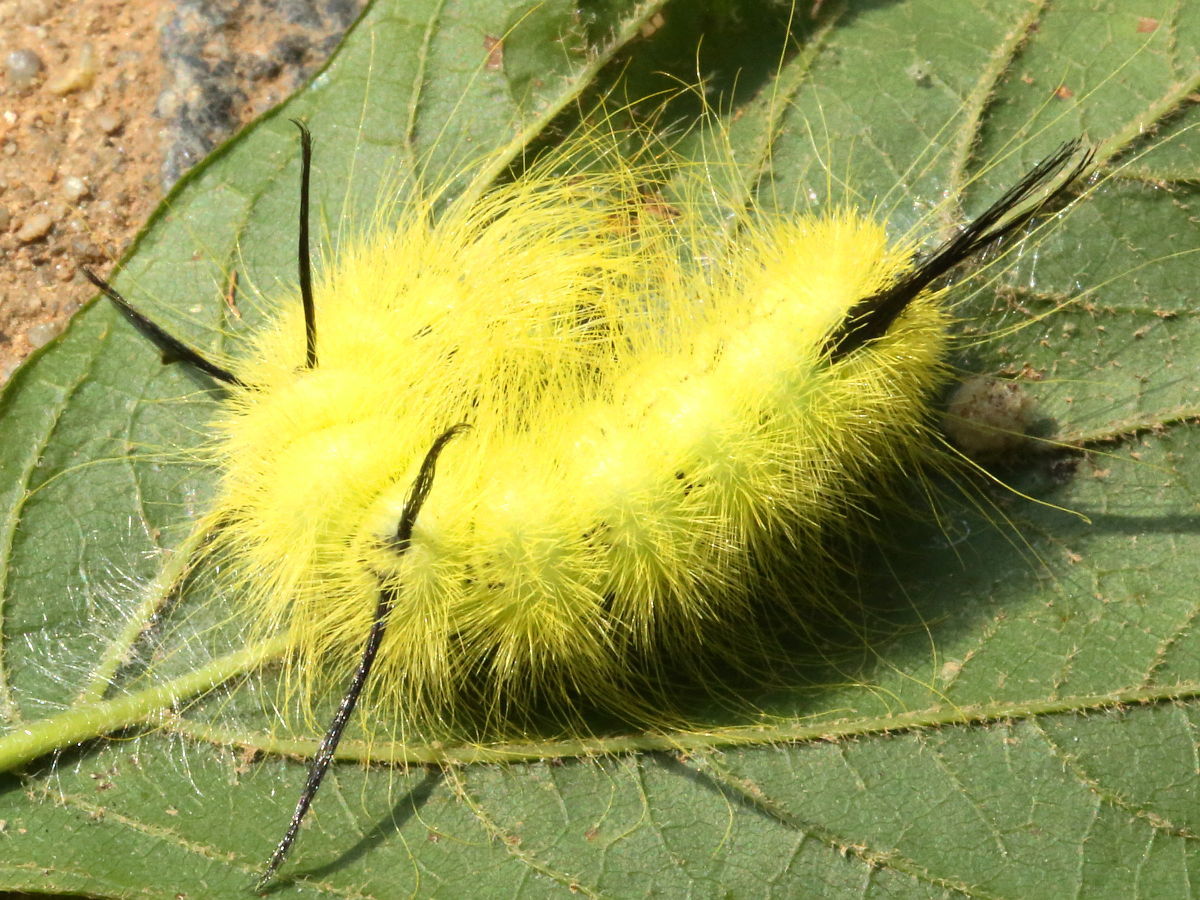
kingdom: Animalia
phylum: Arthropoda
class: Insecta
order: Lepidoptera
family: Noctuidae
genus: Acronicta
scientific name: Acronicta americana
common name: American dagger
